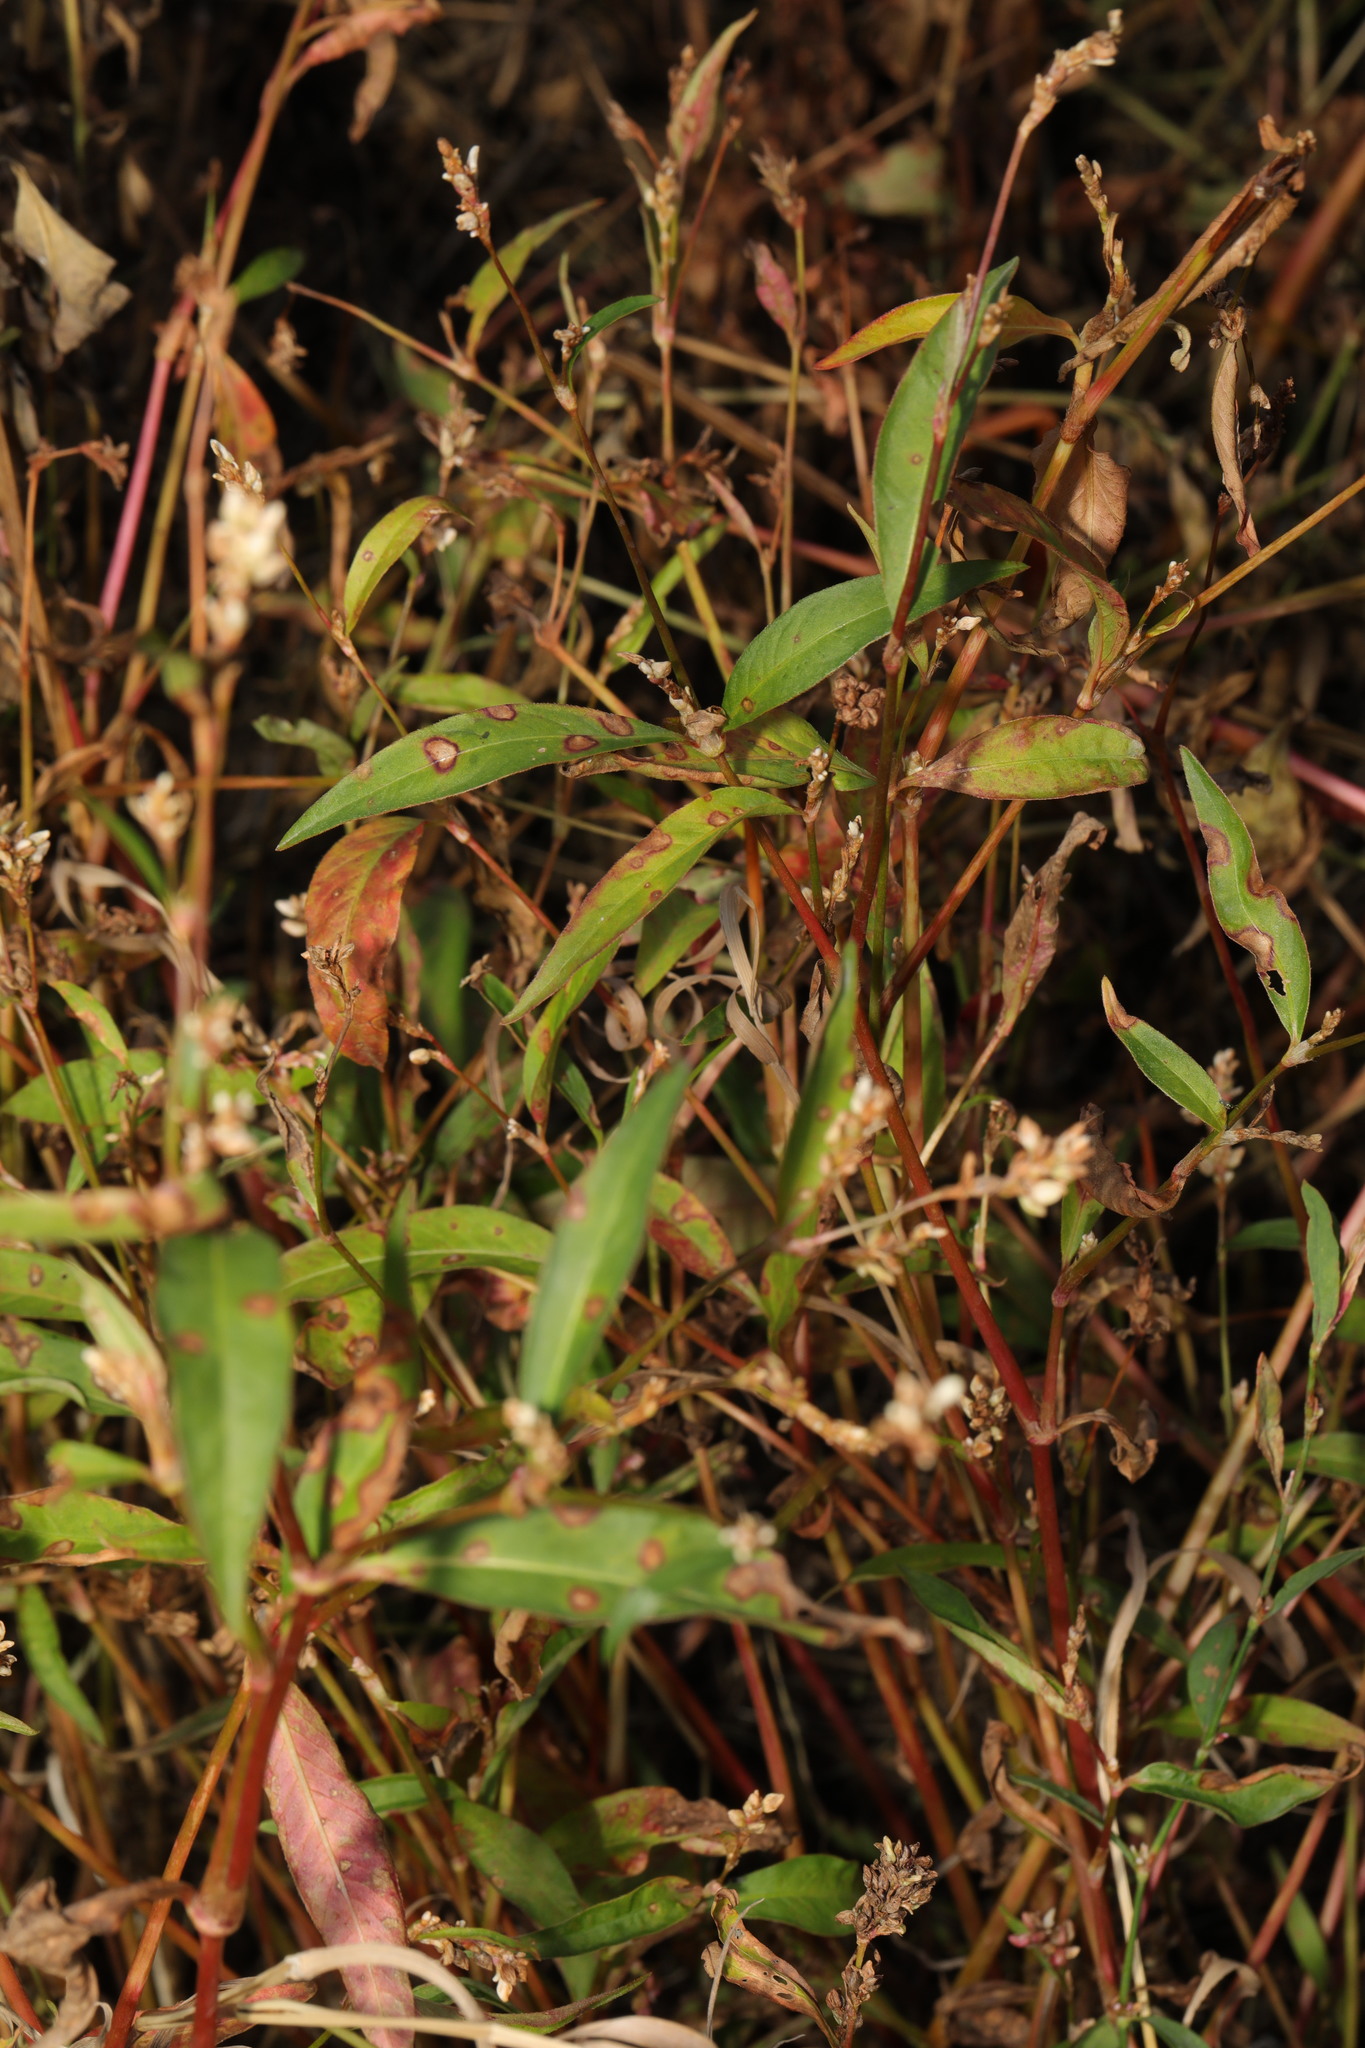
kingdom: Plantae
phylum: Tracheophyta
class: Magnoliopsida
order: Caryophyllales
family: Polygonaceae
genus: Persicaria
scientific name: Persicaria lapathifolia
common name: Curlytop knotweed
